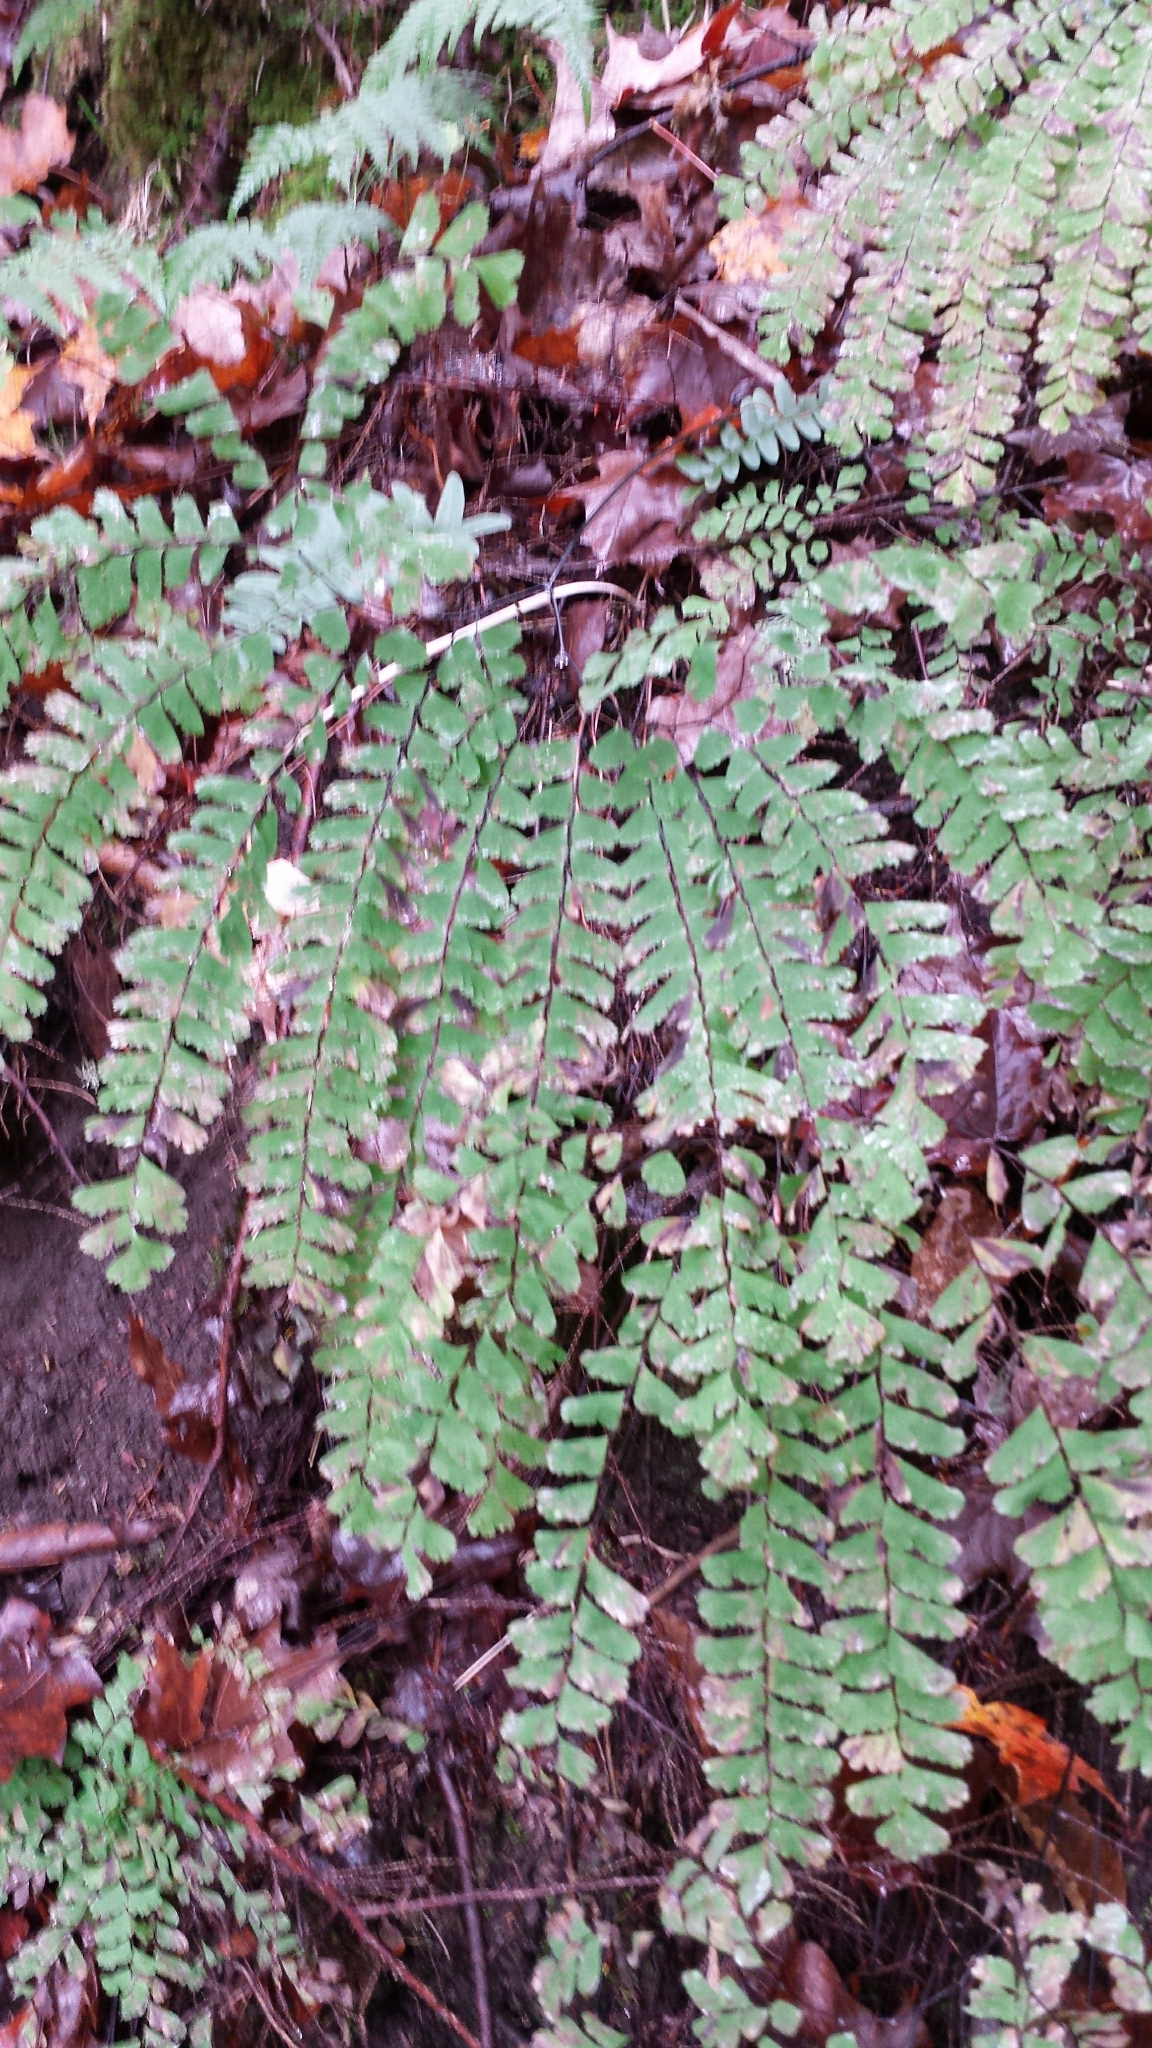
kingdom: Plantae
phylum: Tracheophyta
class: Polypodiopsida
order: Polypodiales
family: Pteridaceae
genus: Adiantum
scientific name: Adiantum pedatum
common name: Five-finger fern
